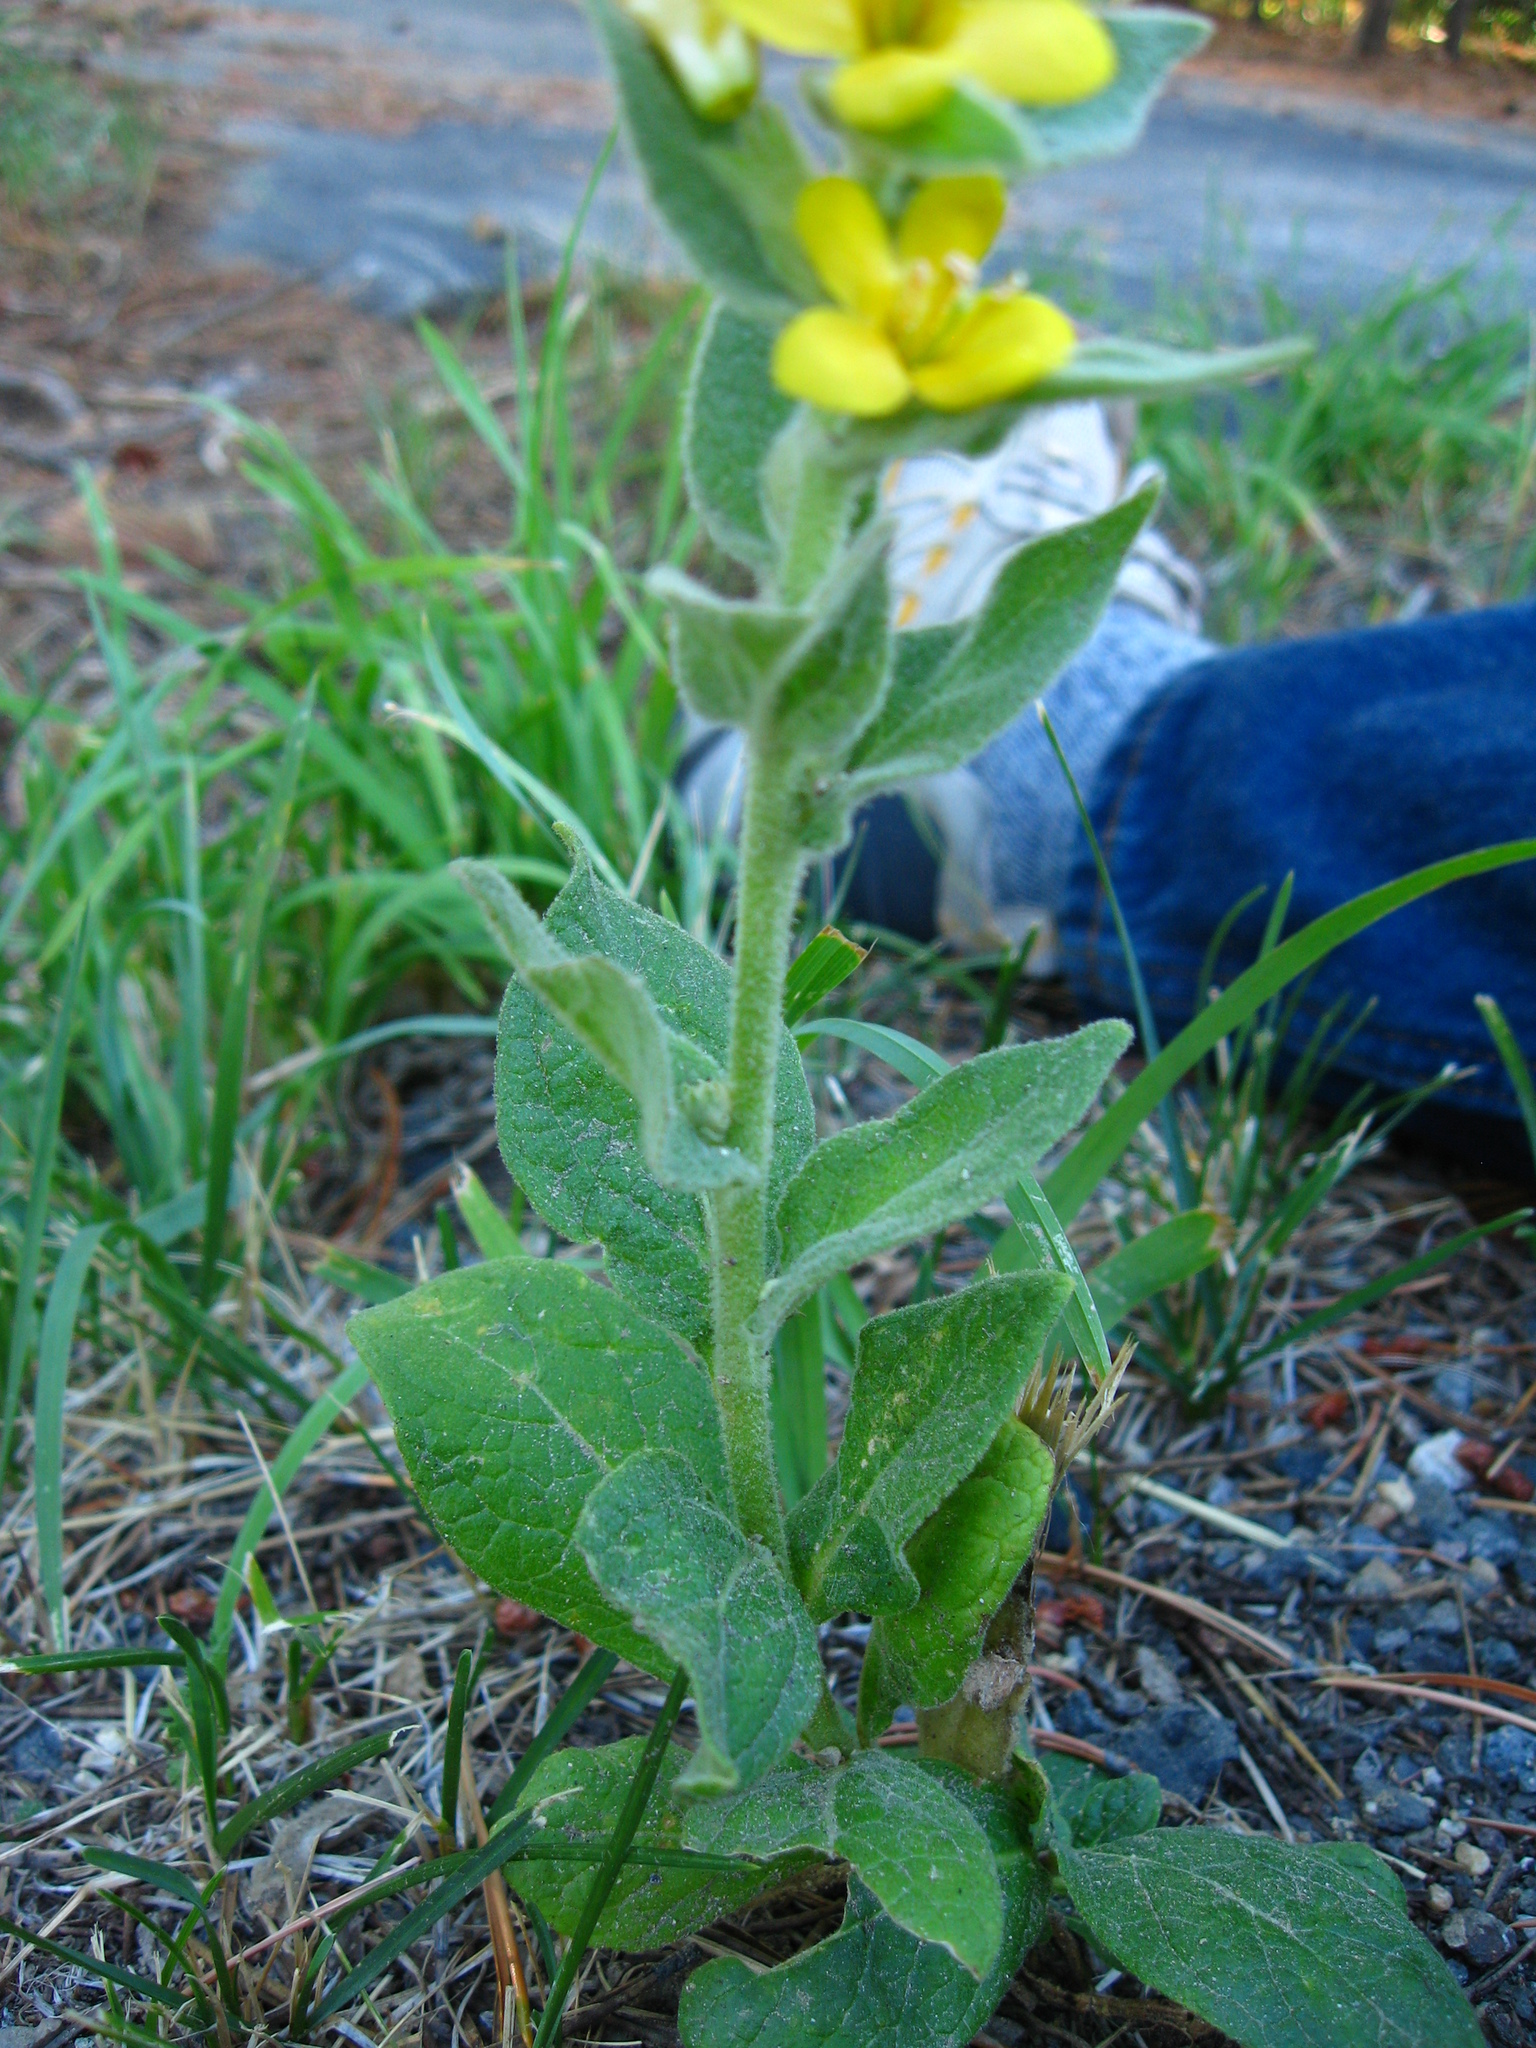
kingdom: Plantae
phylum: Tracheophyta
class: Magnoliopsida
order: Lamiales
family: Scrophulariaceae
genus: Verbascum
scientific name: Verbascum thapsus
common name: Common mullein
